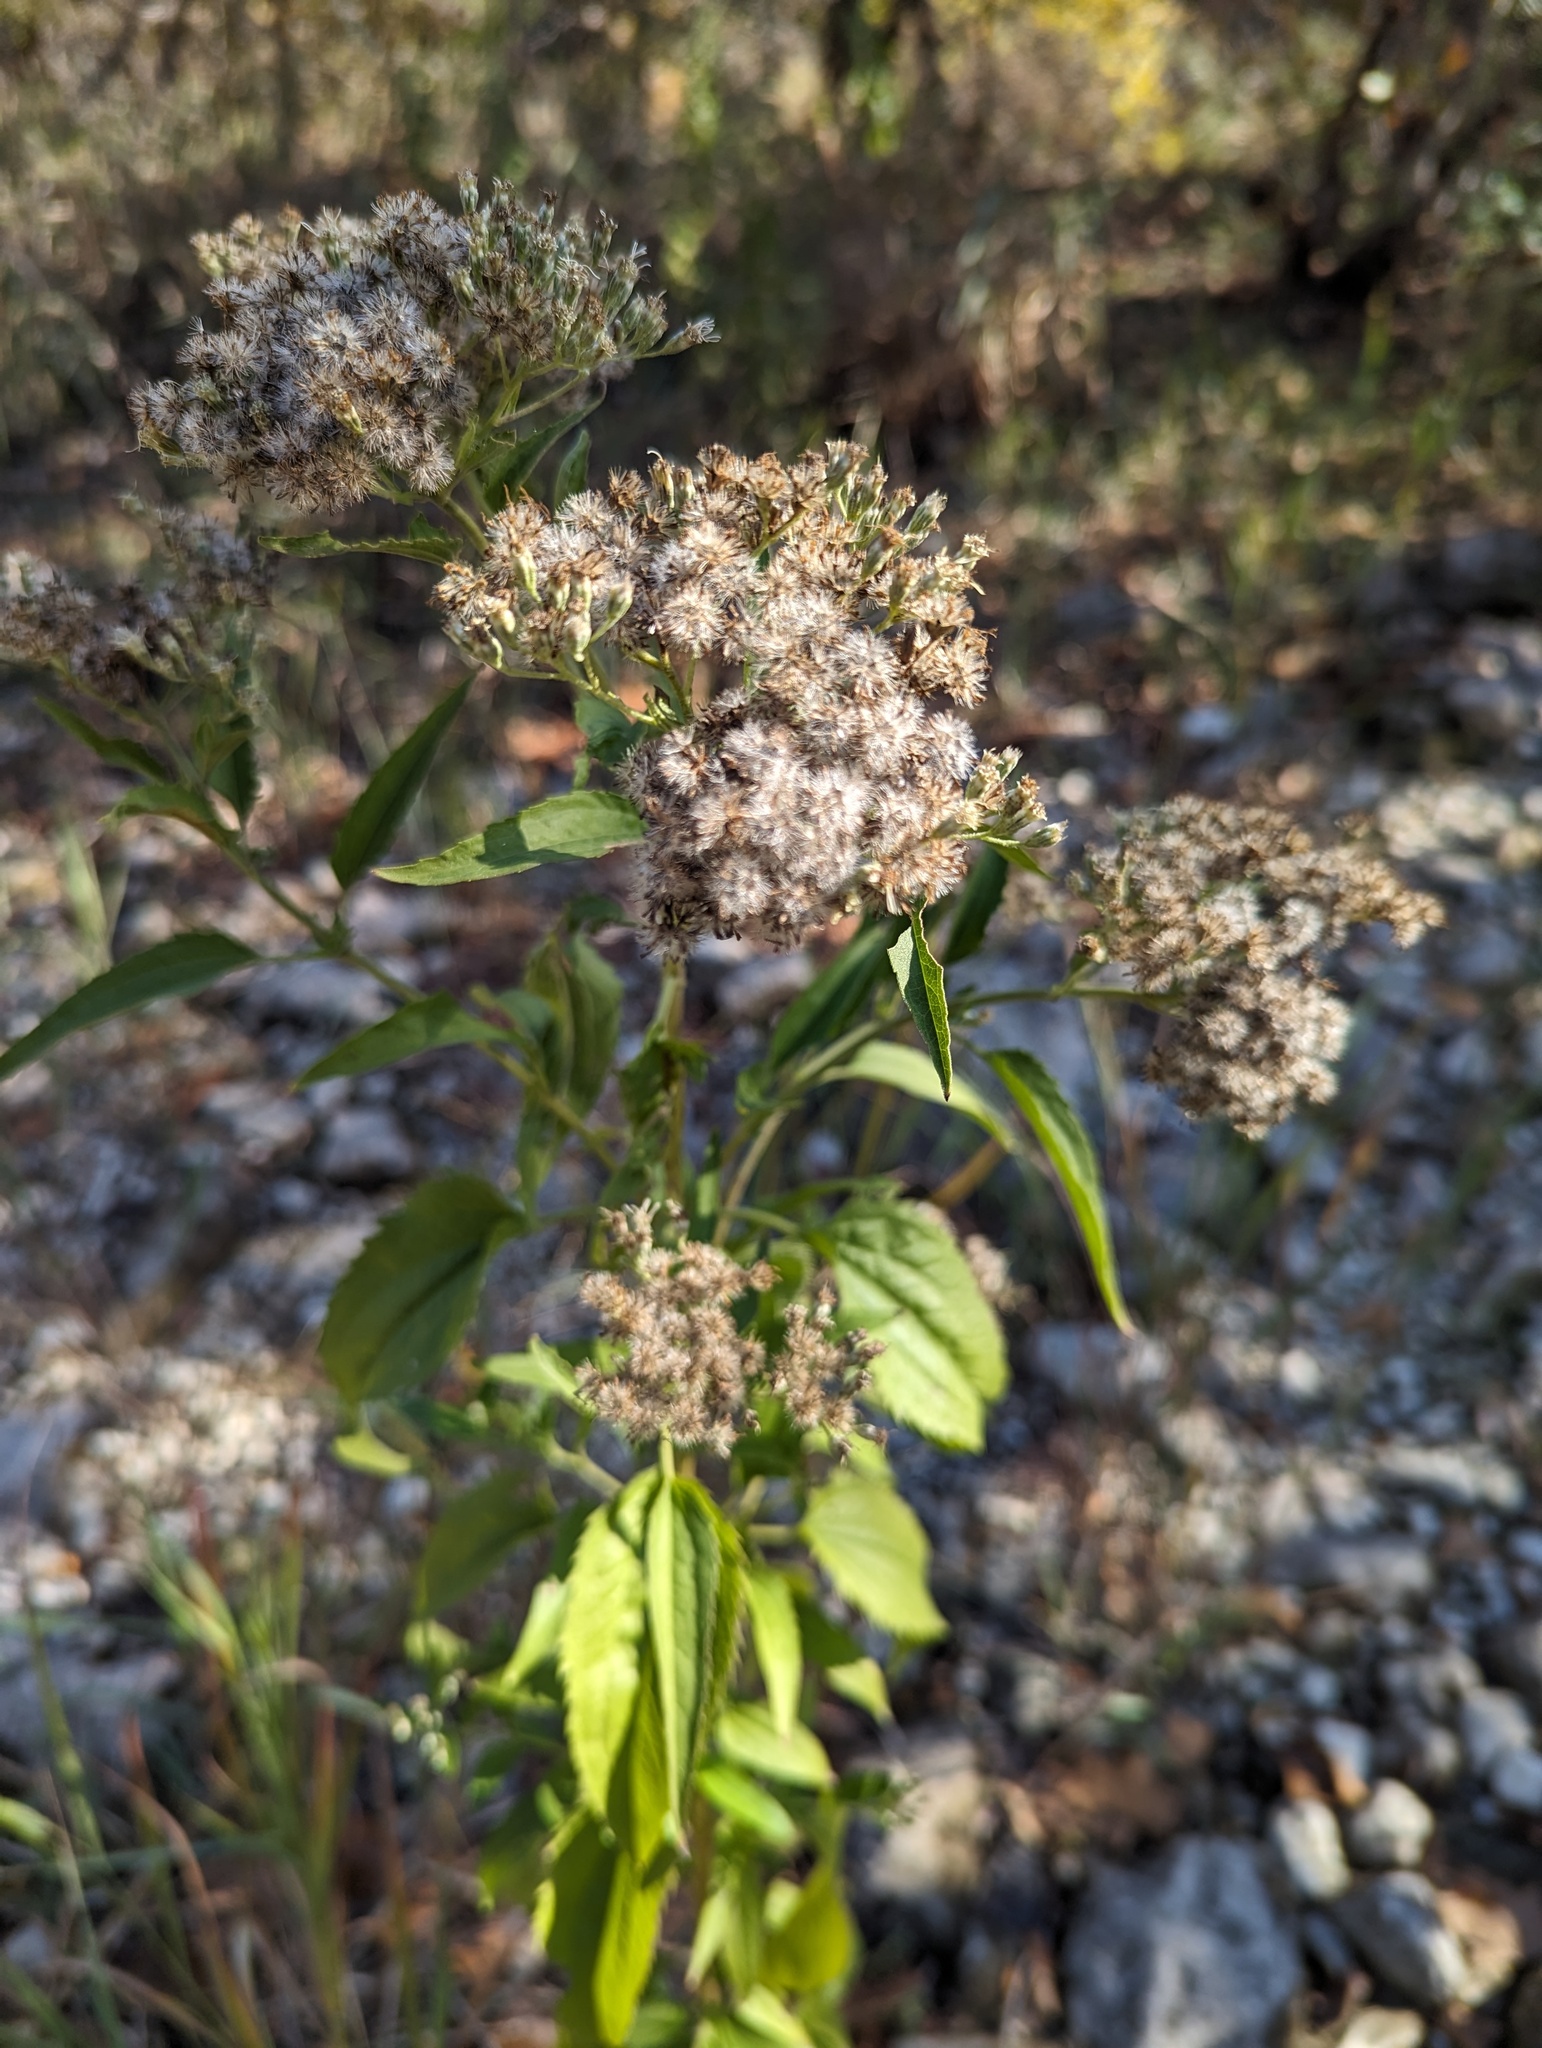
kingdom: Plantae
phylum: Tracheophyta
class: Magnoliopsida
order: Asterales
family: Asteraceae
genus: Eupatorium
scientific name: Eupatorium serotinum
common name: Late boneset
